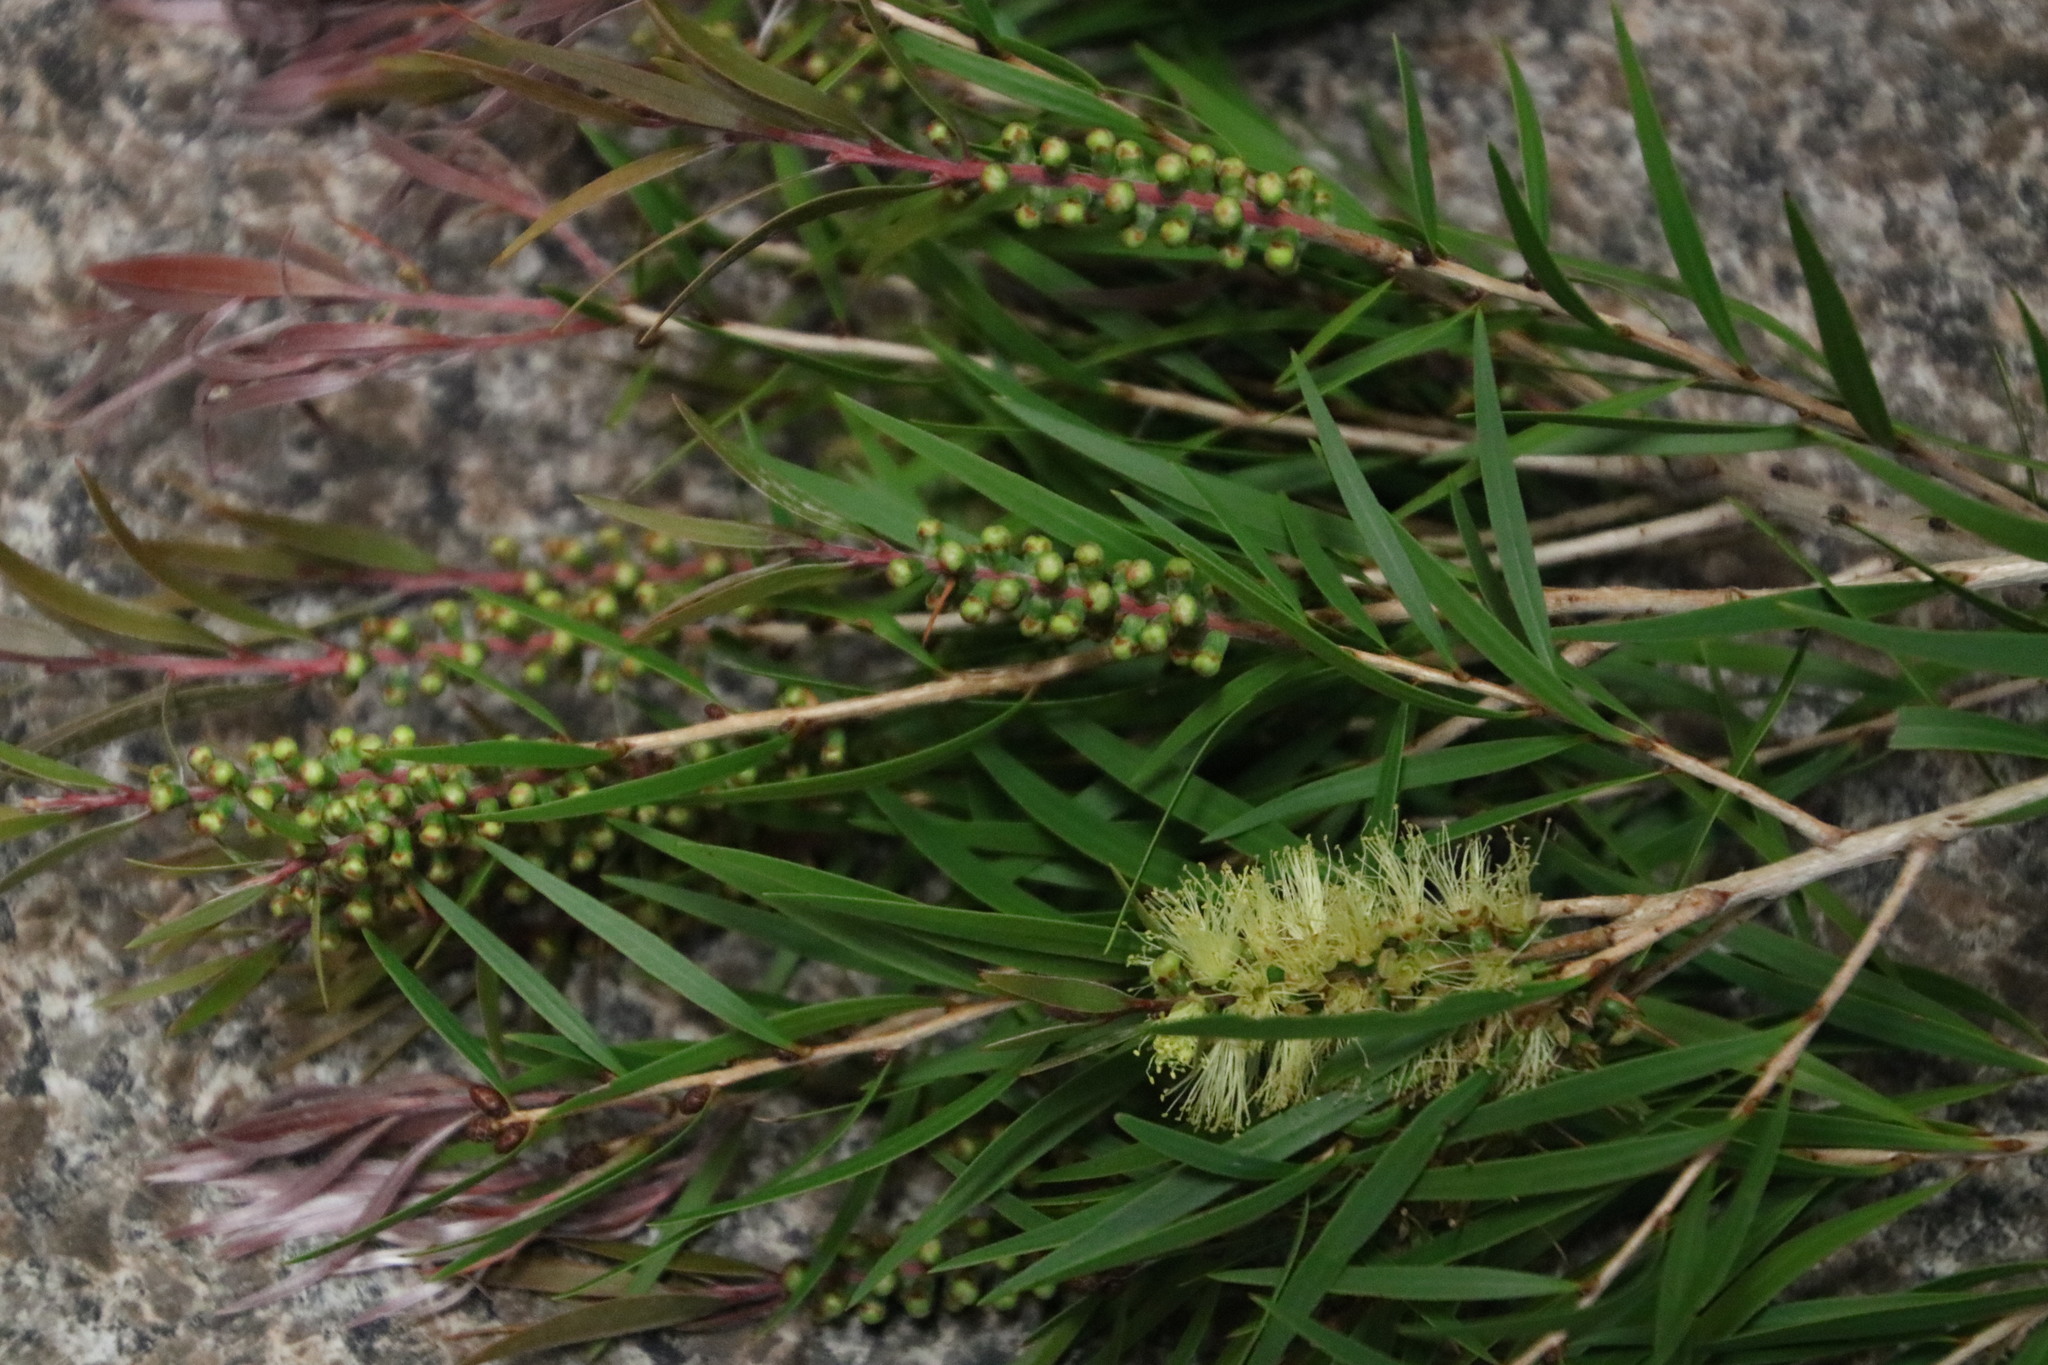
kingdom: Plantae
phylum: Tracheophyta
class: Magnoliopsida
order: Myrtales
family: Myrtaceae
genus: Callistemon
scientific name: Callistemon salignus
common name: White bottlebrush
